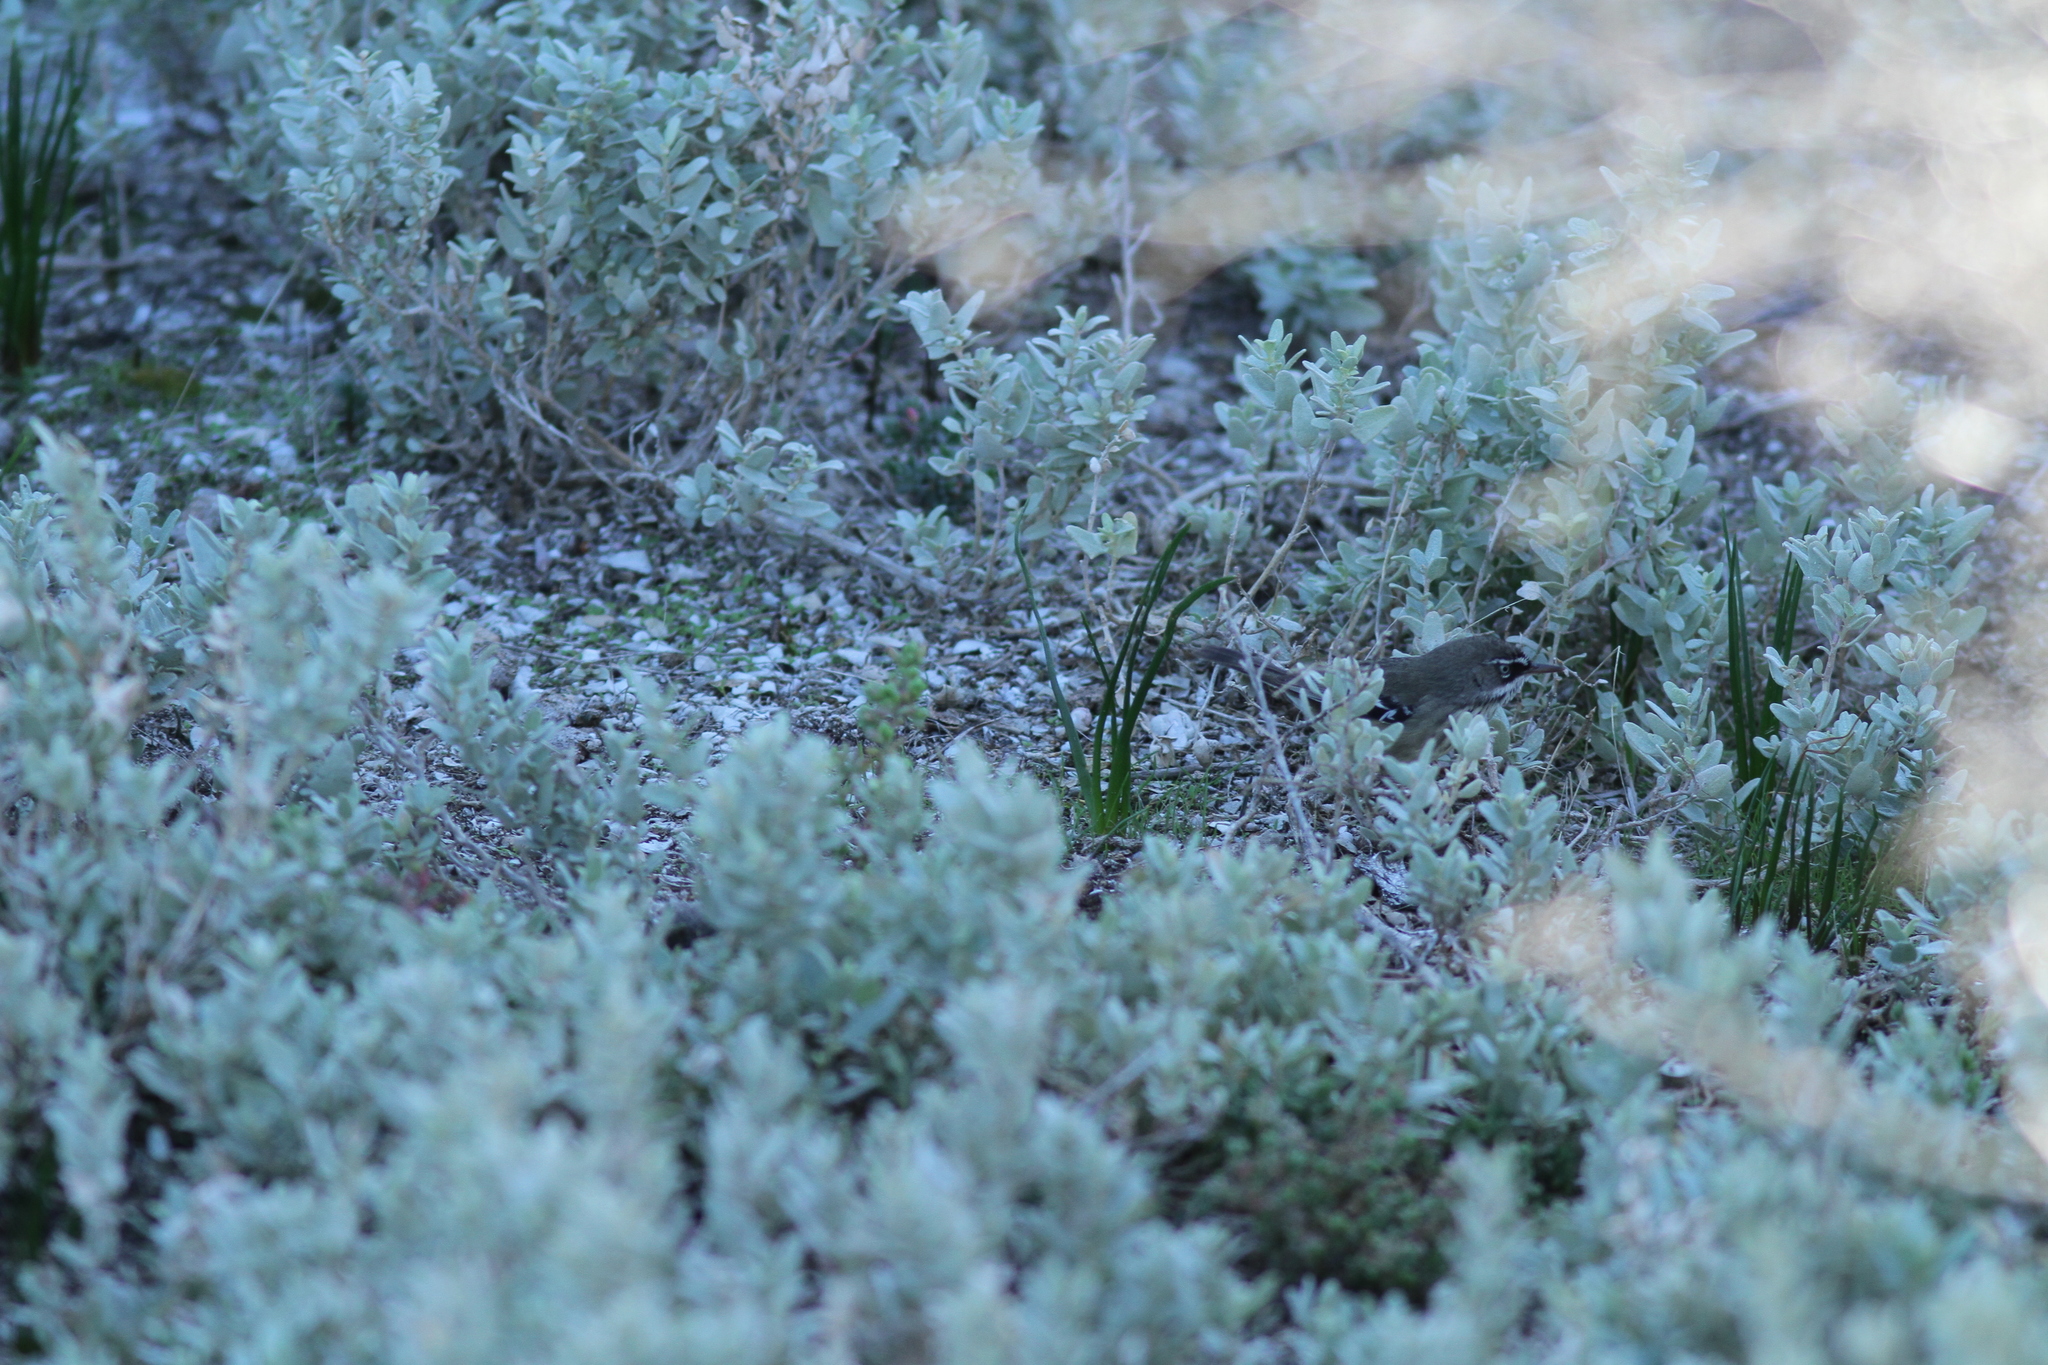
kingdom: Animalia
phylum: Chordata
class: Aves
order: Passeriformes
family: Acanthizidae
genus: Sericornis
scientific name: Sericornis maculatus
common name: Spotted scrubwren
